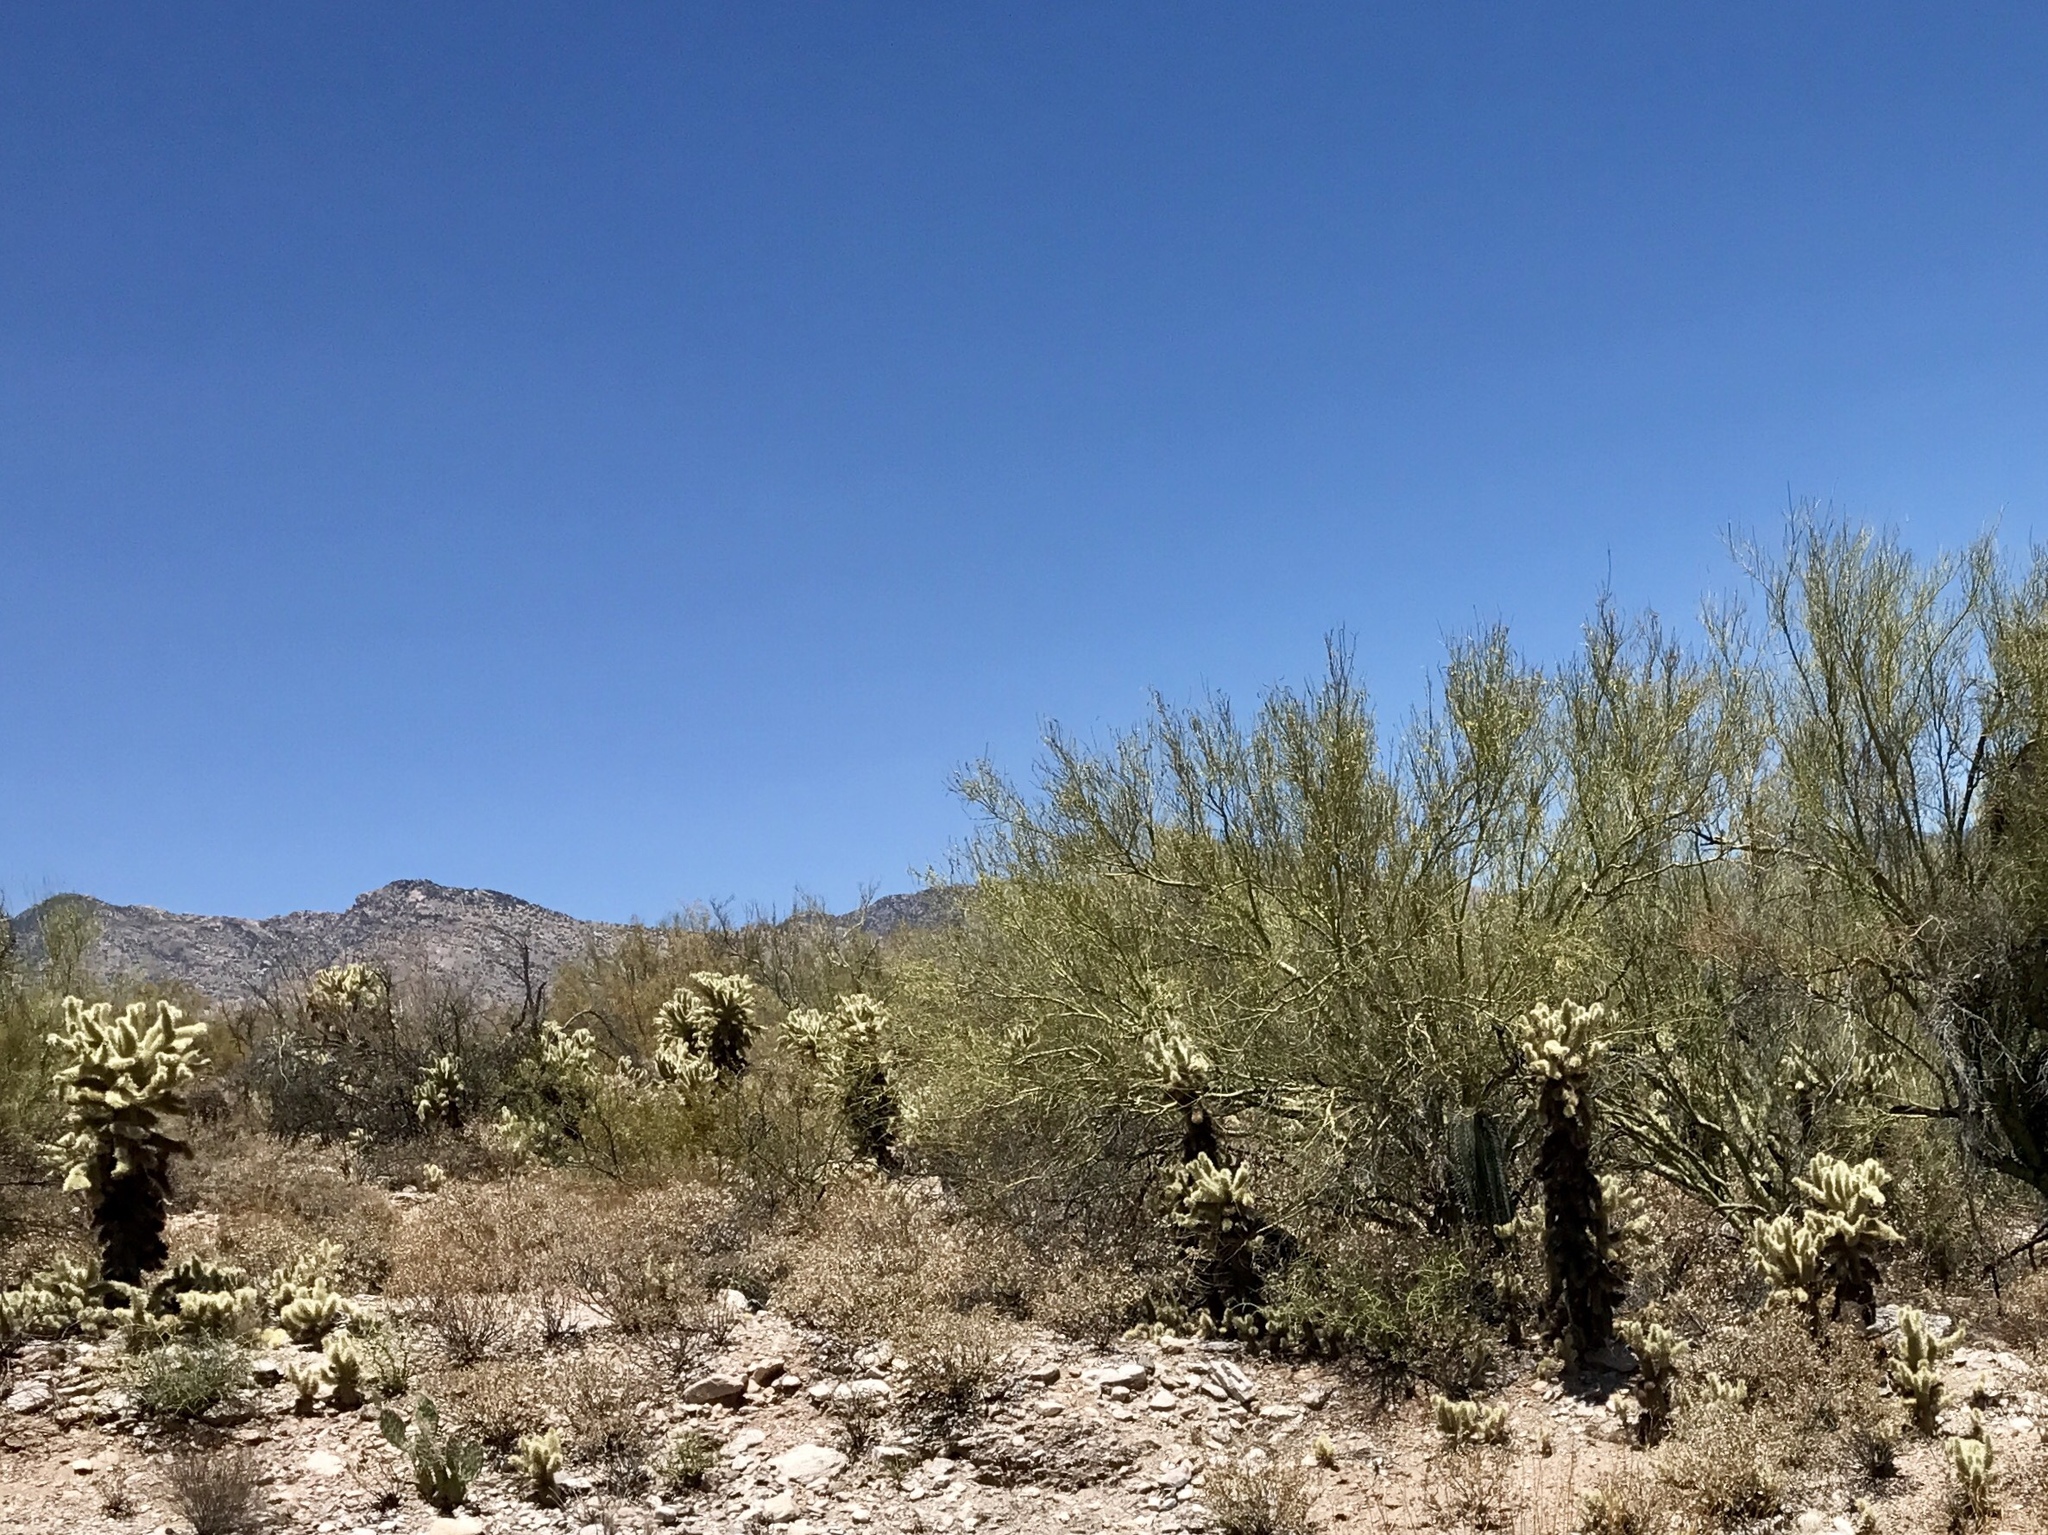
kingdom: Plantae
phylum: Tracheophyta
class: Magnoliopsida
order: Caryophyllales
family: Cactaceae
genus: Cylindropuntia
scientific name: Cylindropuntia fosbergii
